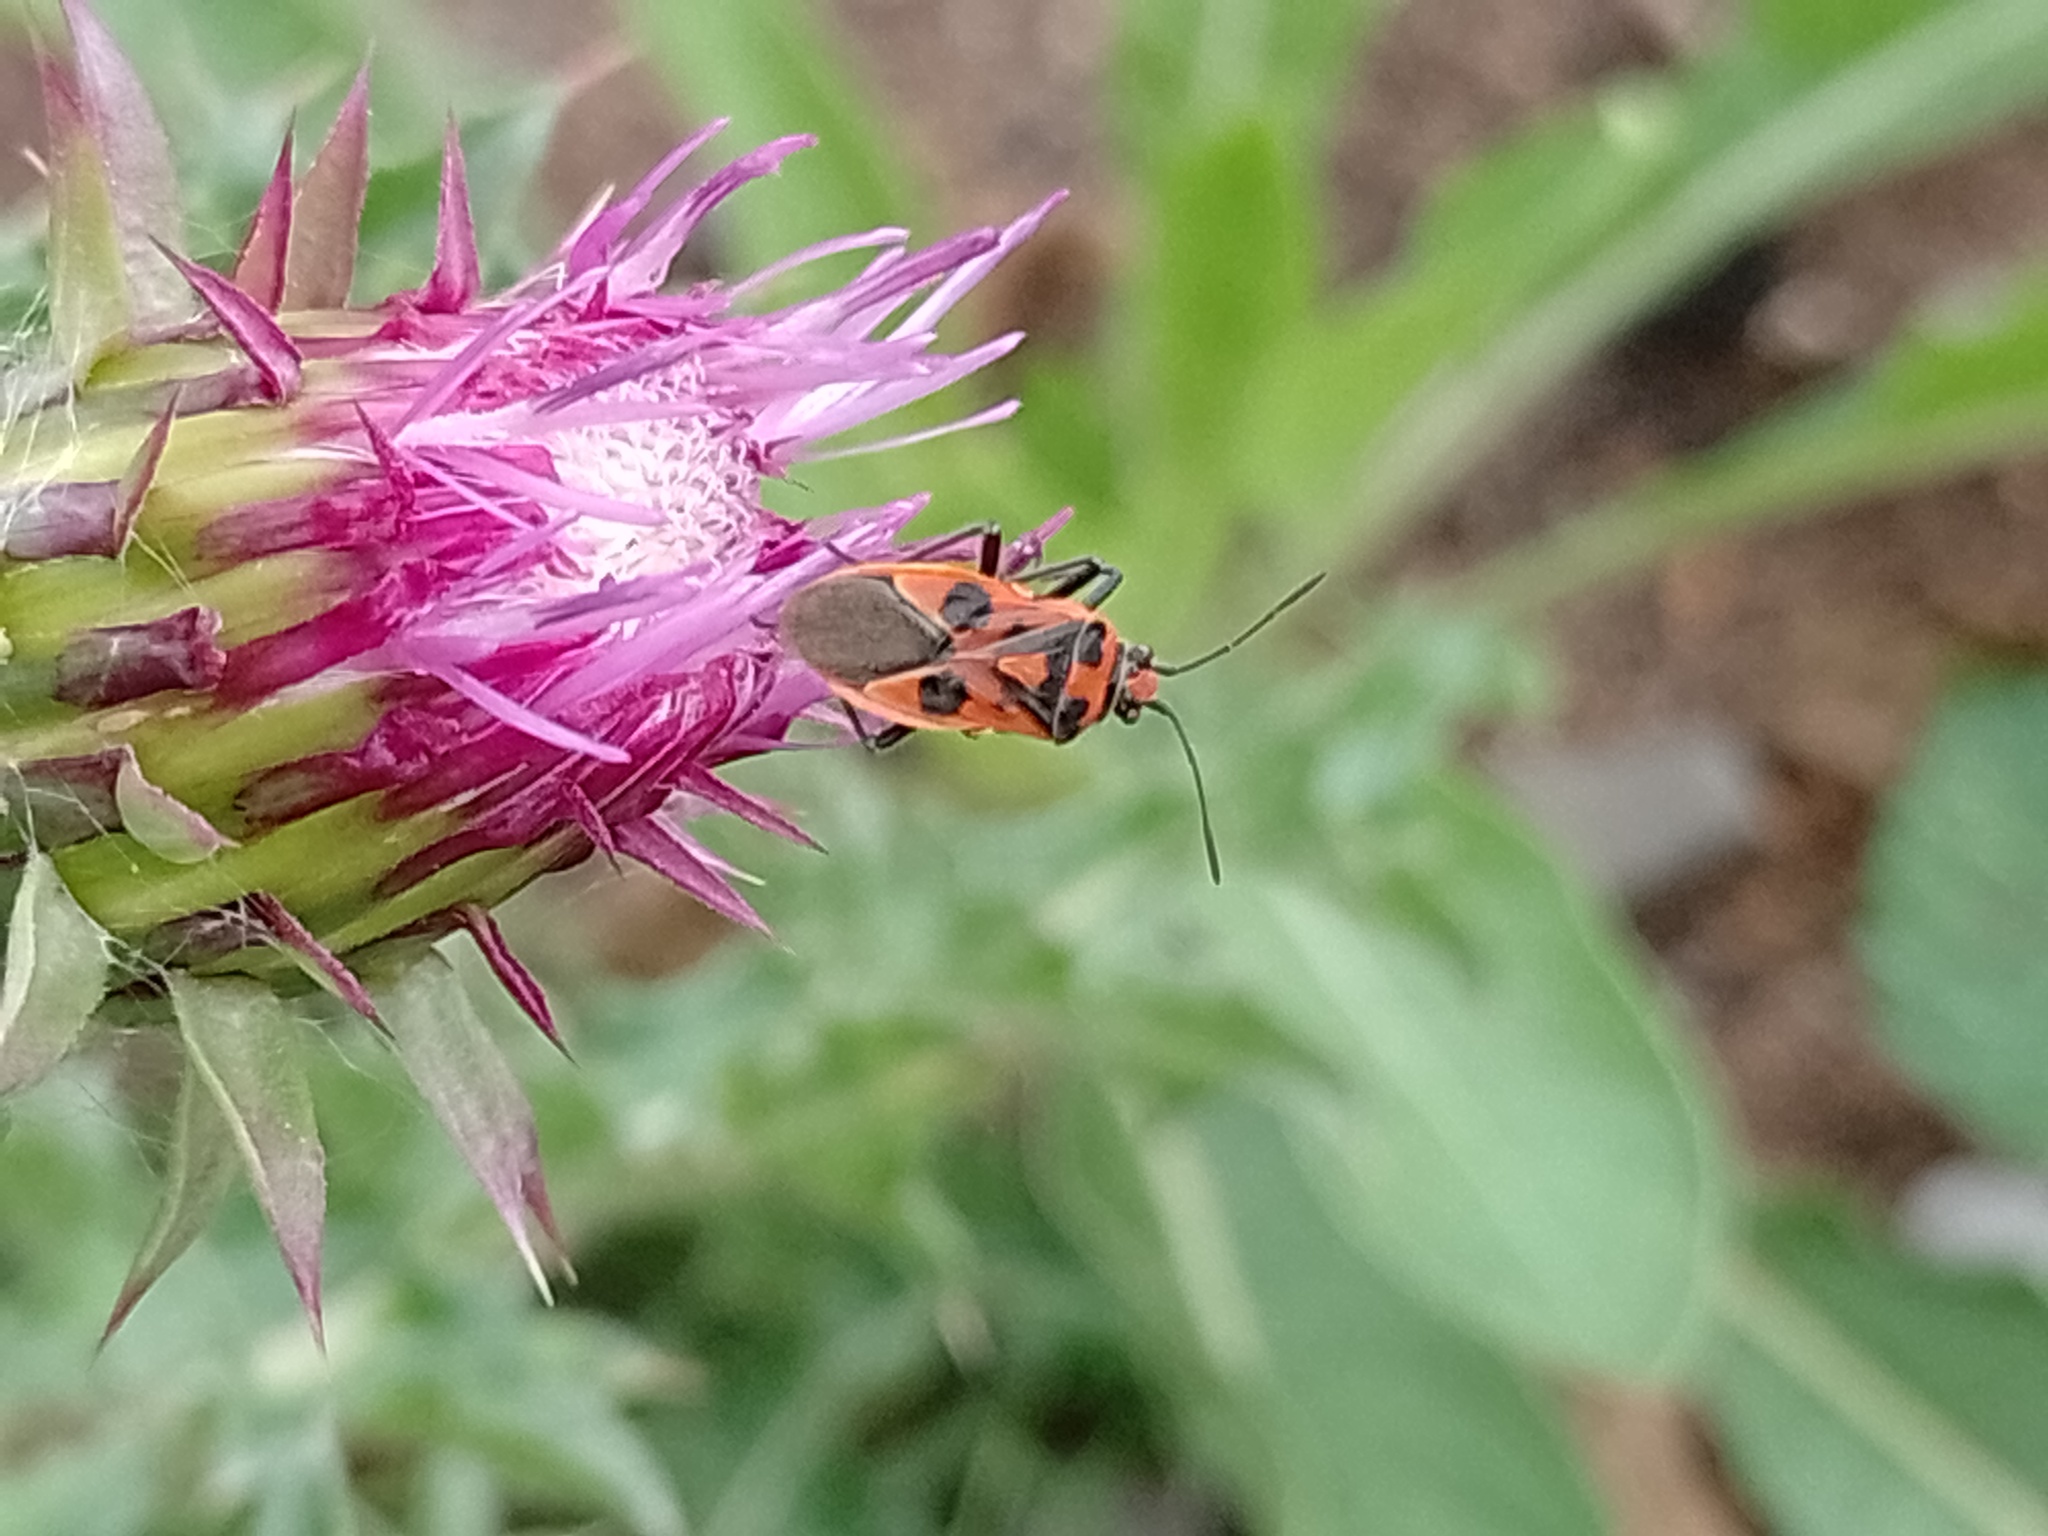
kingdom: Animalia
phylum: Arthropoda
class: Insecta
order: Hemiptera
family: Rhopalidae
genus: Corizus
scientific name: Corizus hyoscyami
